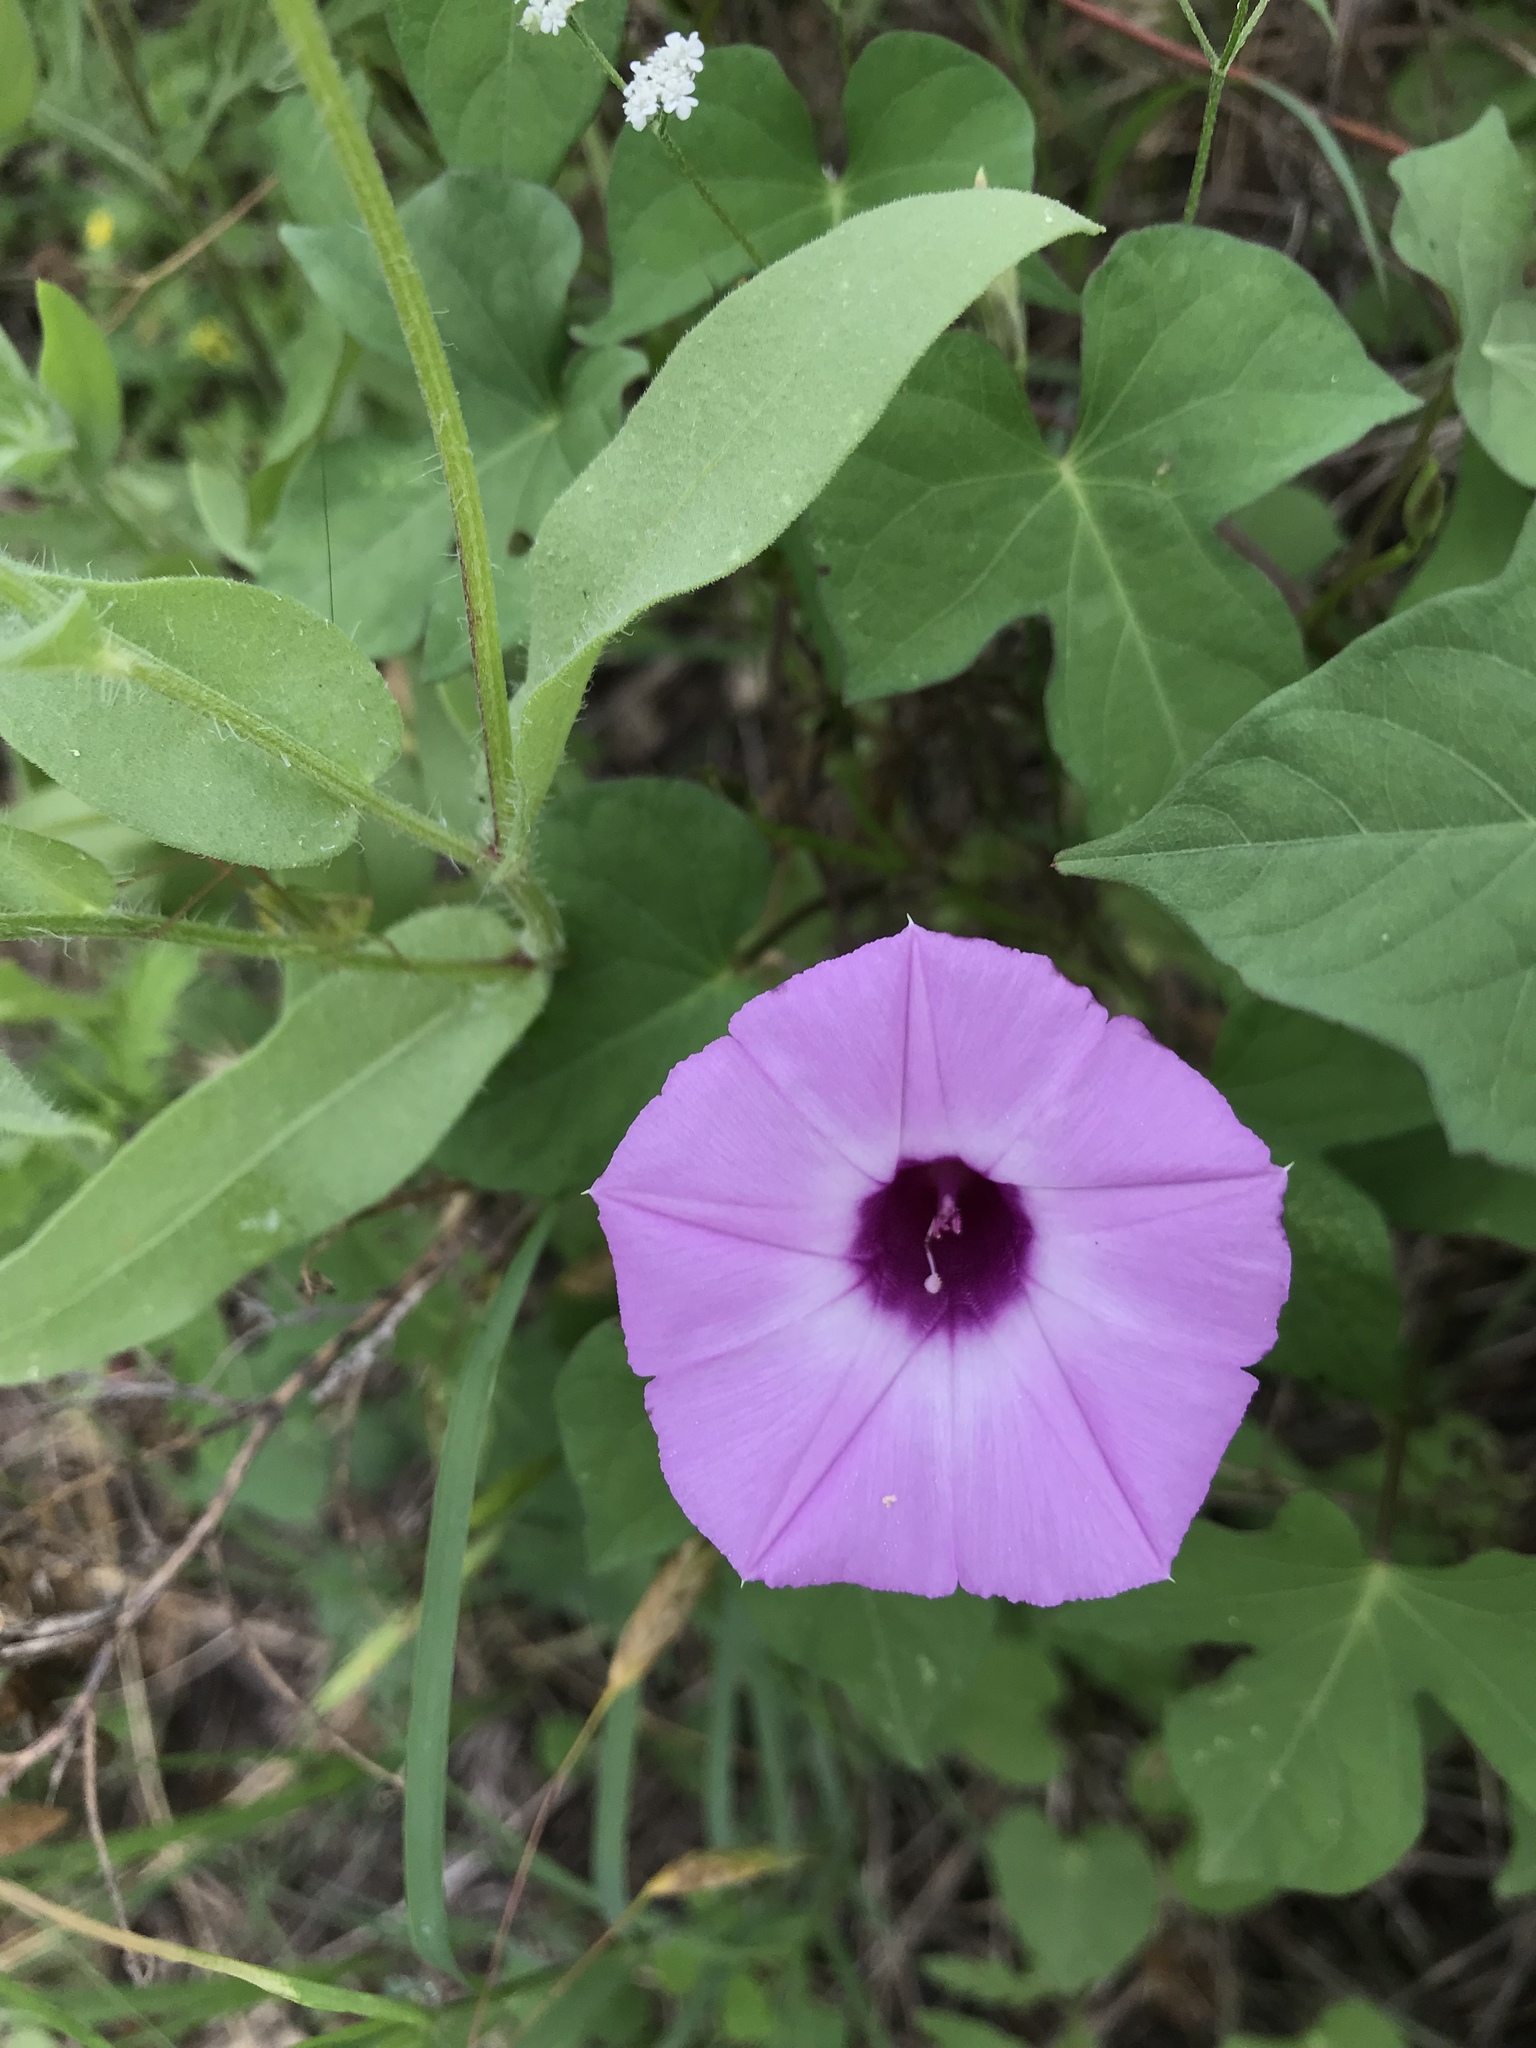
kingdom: Plantae
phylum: Tracheophyta
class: Magnoliopsida
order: Solanales
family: Convolvulaceae
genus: Ipomoea
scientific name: Ipomoea cordatotriloba
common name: Cotton morning glory
